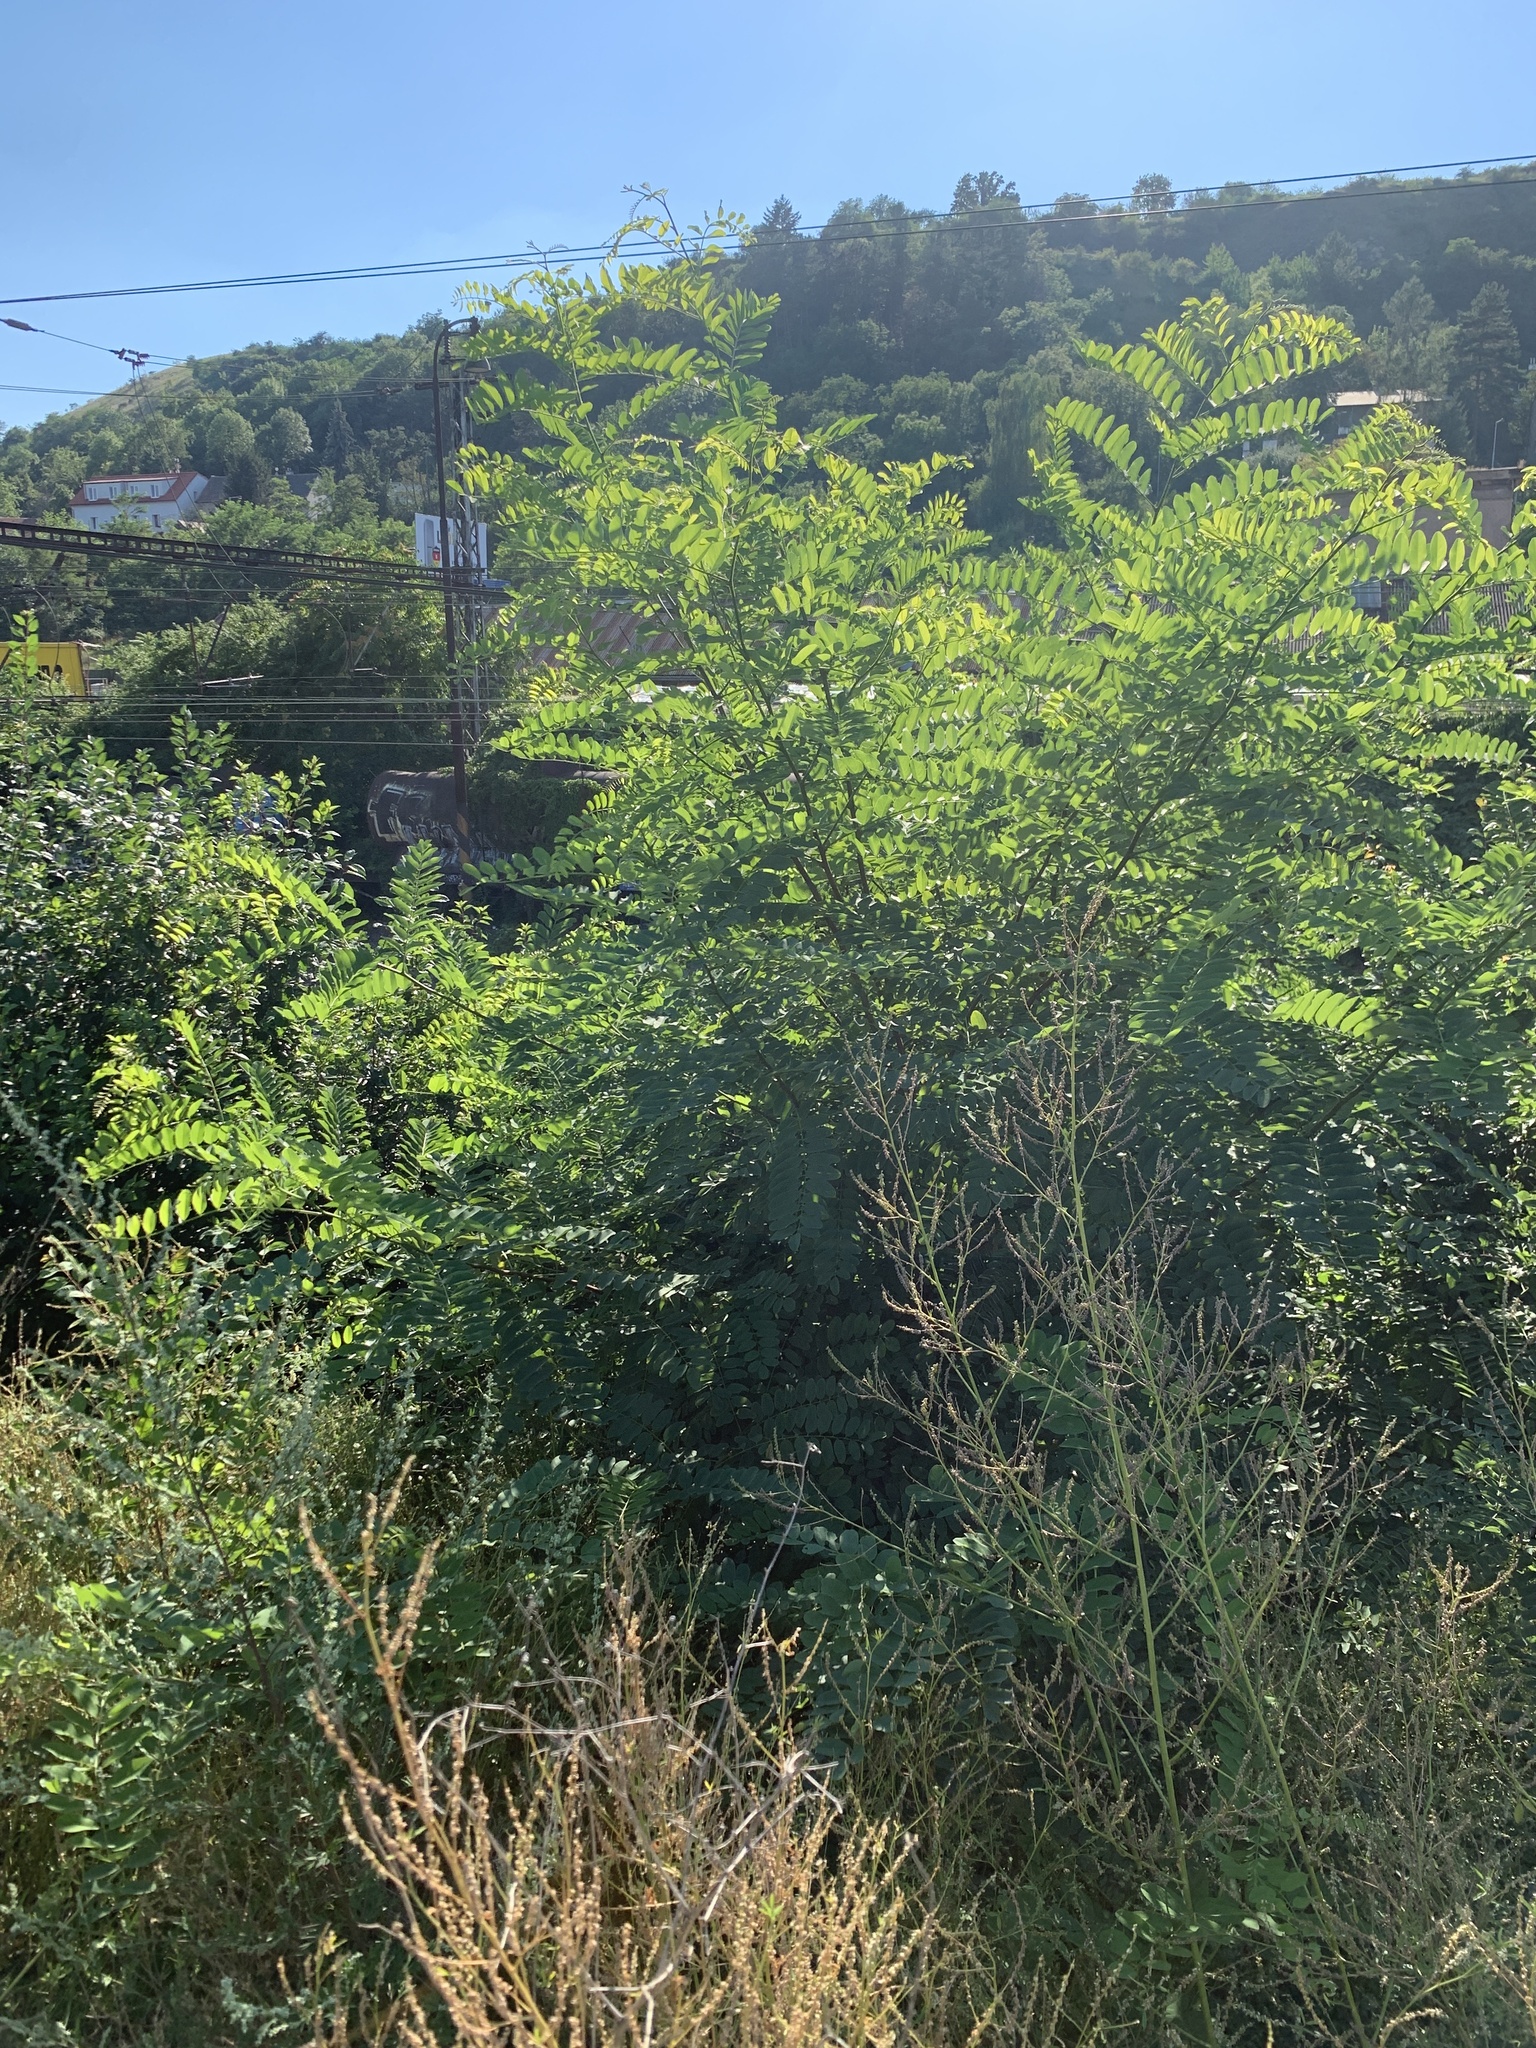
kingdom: Plantae
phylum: Tracheophyta
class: Magnoliopsida
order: Fabales
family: Fabaceae
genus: Robinia
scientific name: Robinia pseudoacacia
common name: Black locust
